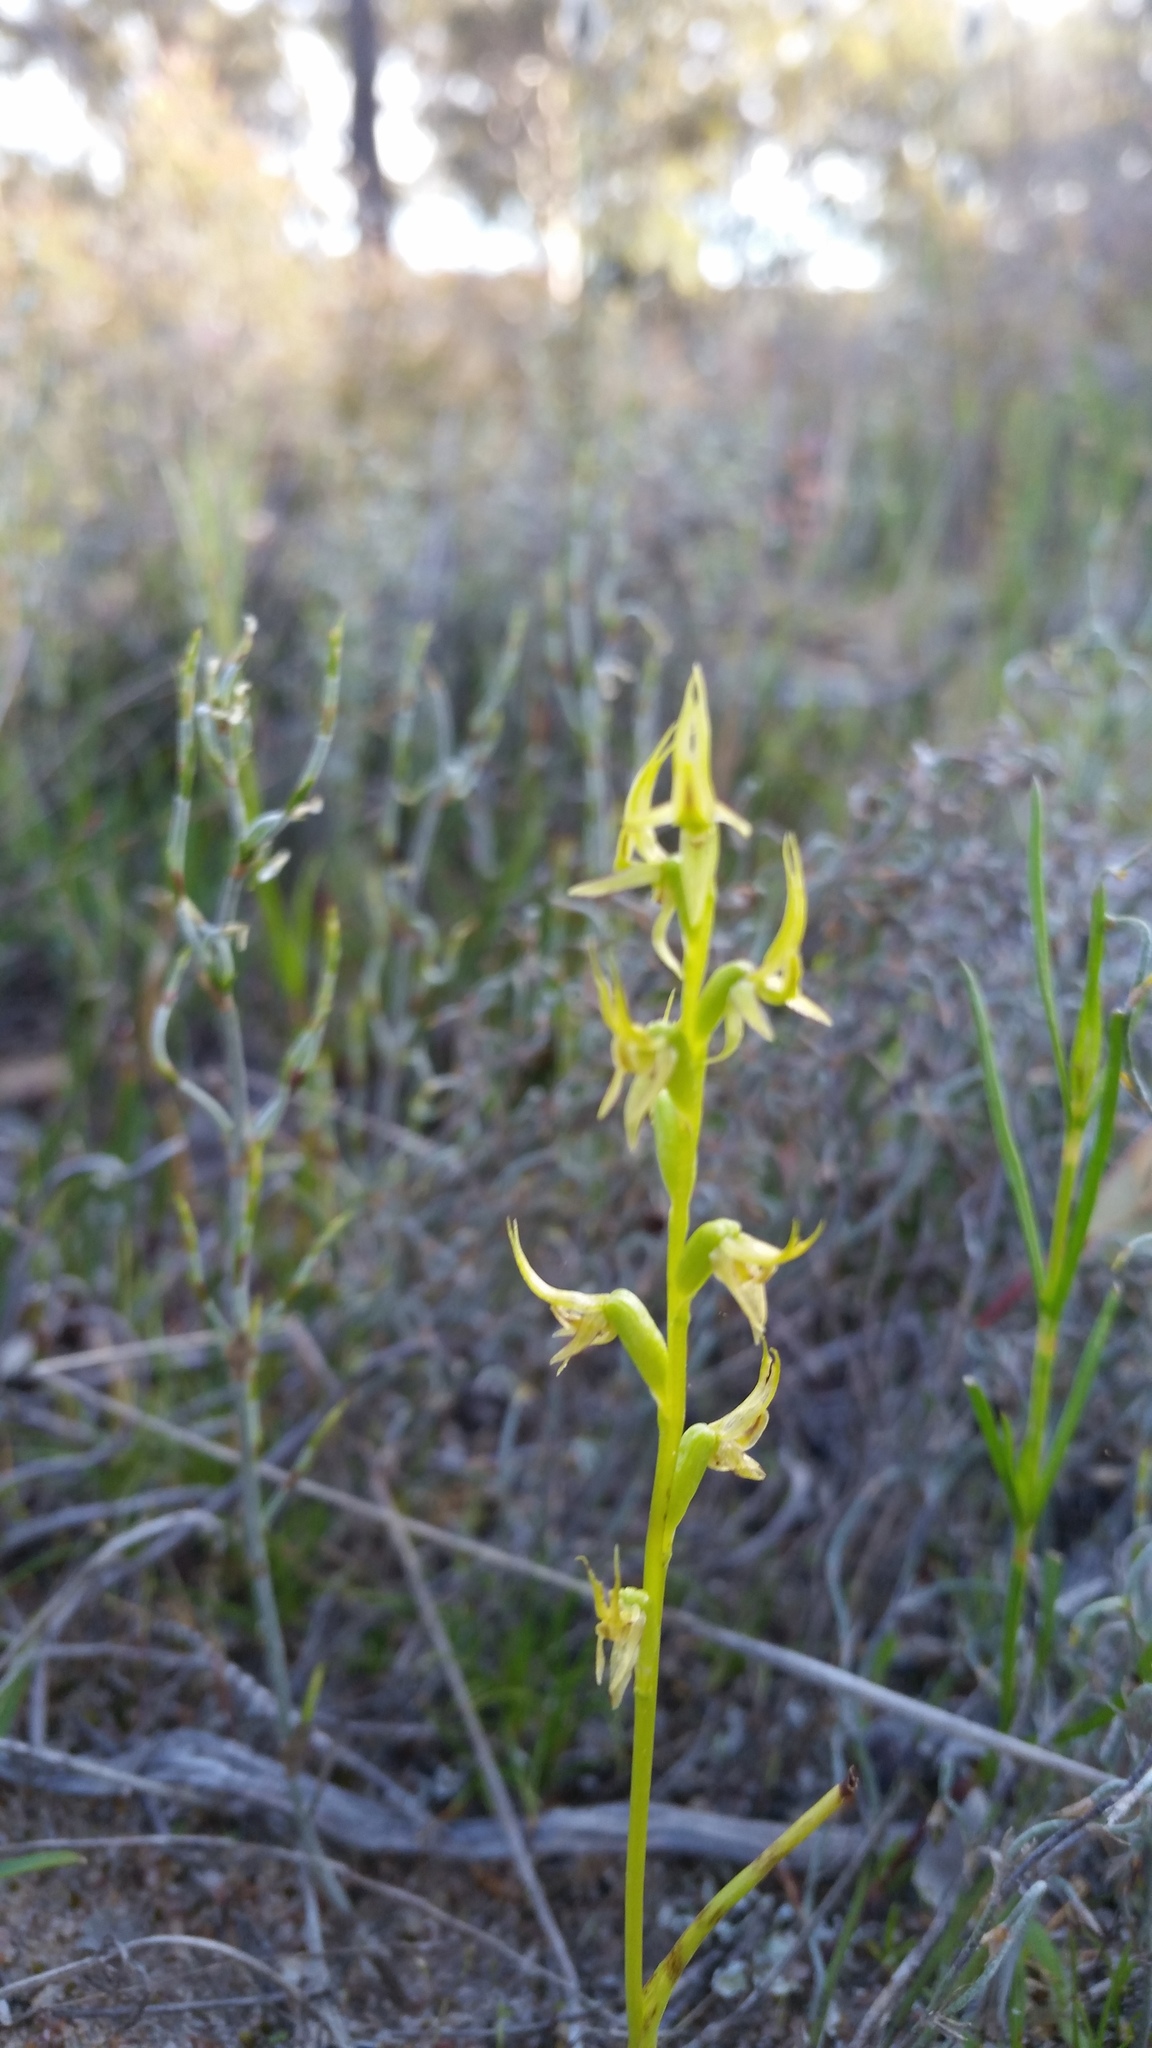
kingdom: Plantae
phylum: Tracheophyta
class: Liliopsida
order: Asparagales
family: Orchidaceae
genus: Prasophyllum
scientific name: Prasophyllum gracile
